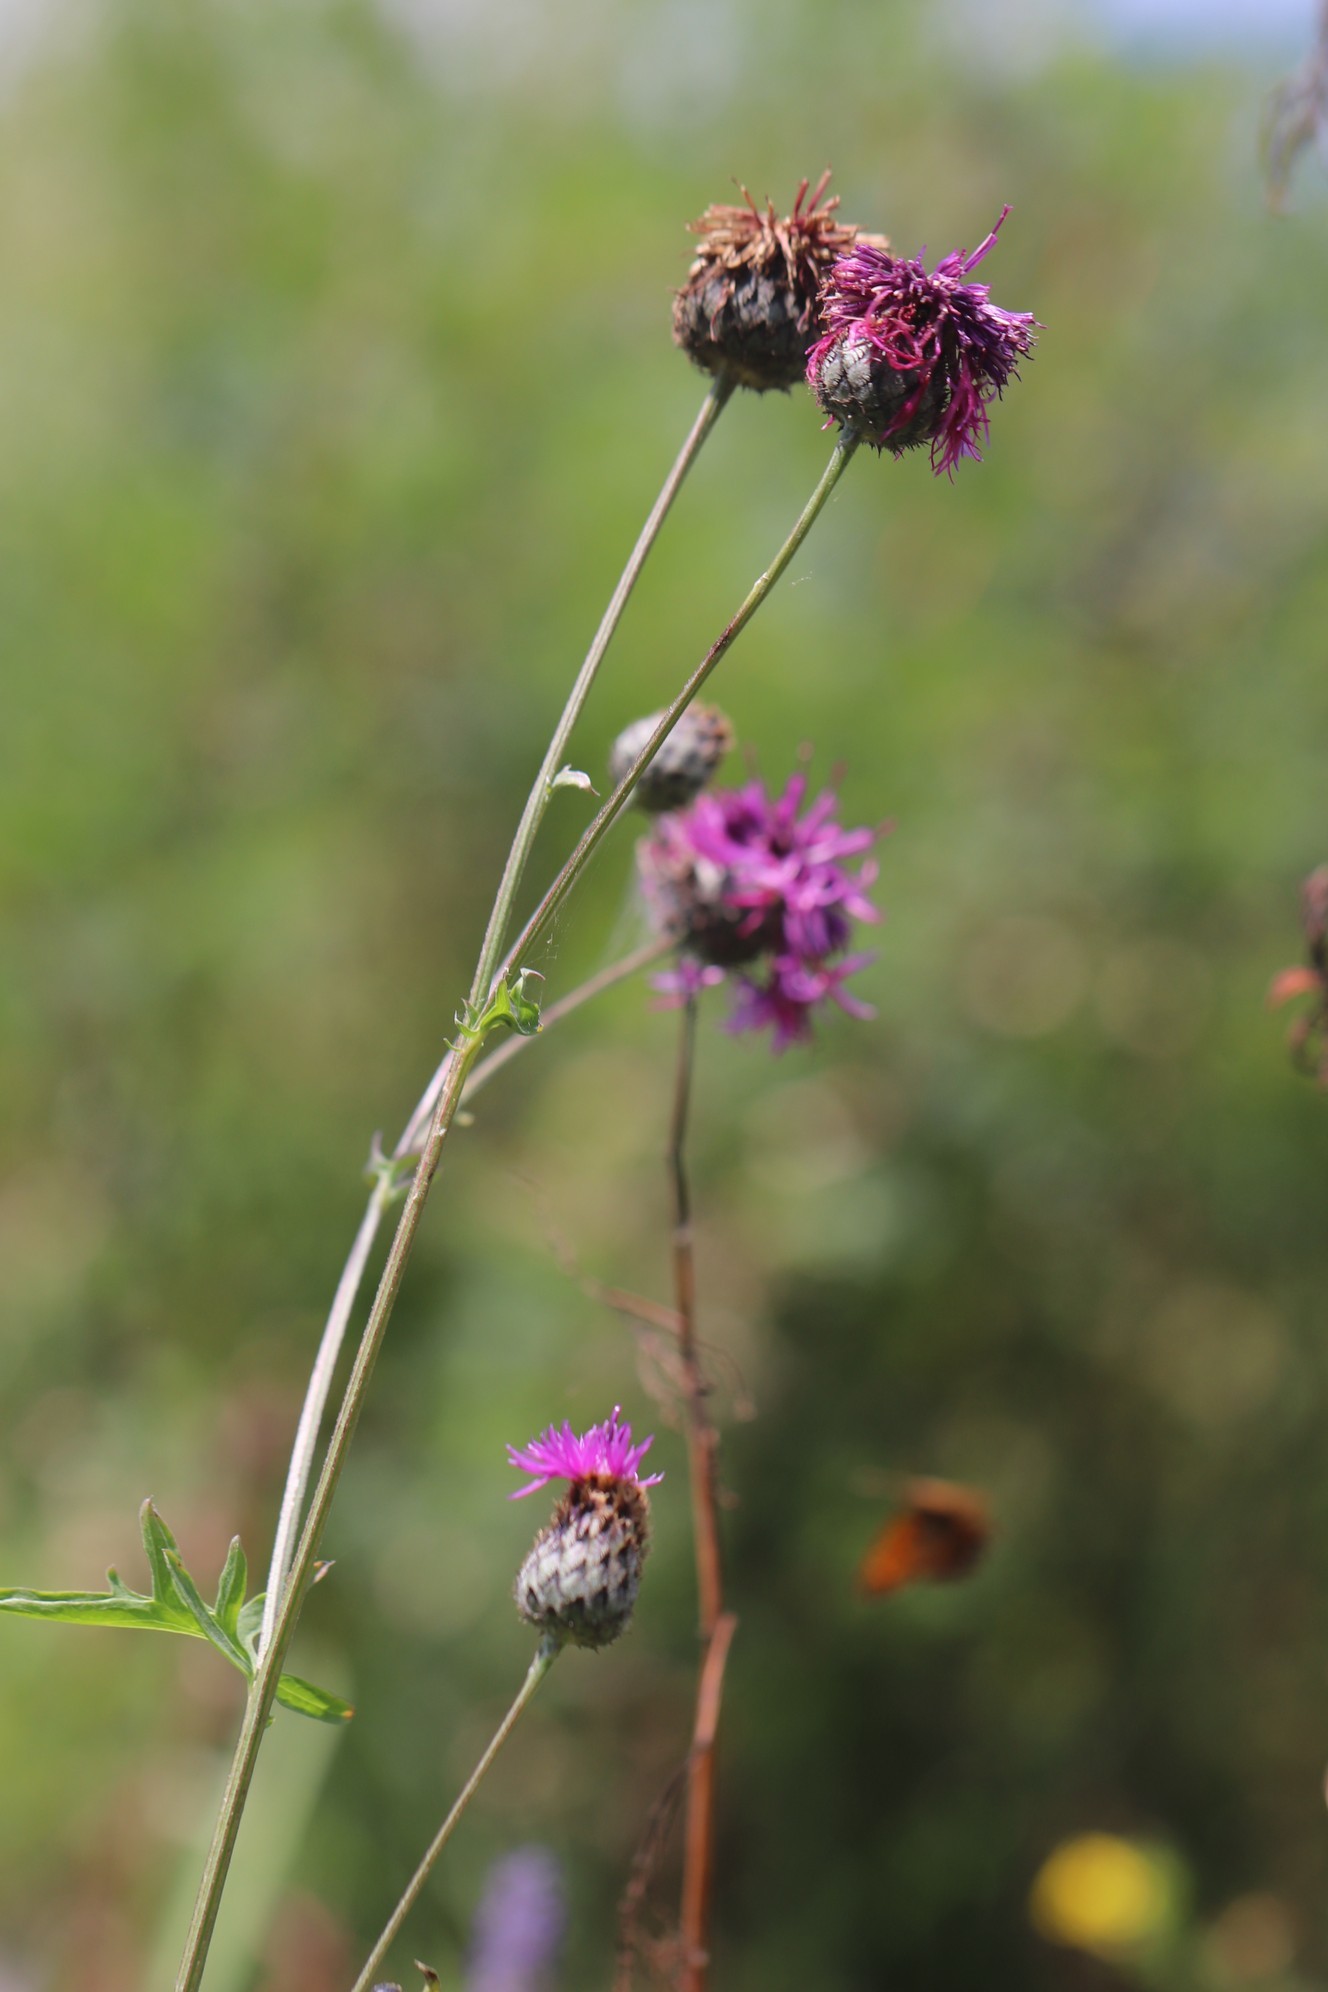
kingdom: Plantae
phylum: Tracheophyta
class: Magnoliopsida
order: Asterales
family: Asteraceae
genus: Centaurea
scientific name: Centaurea scabiosa
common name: Greater knapweed
